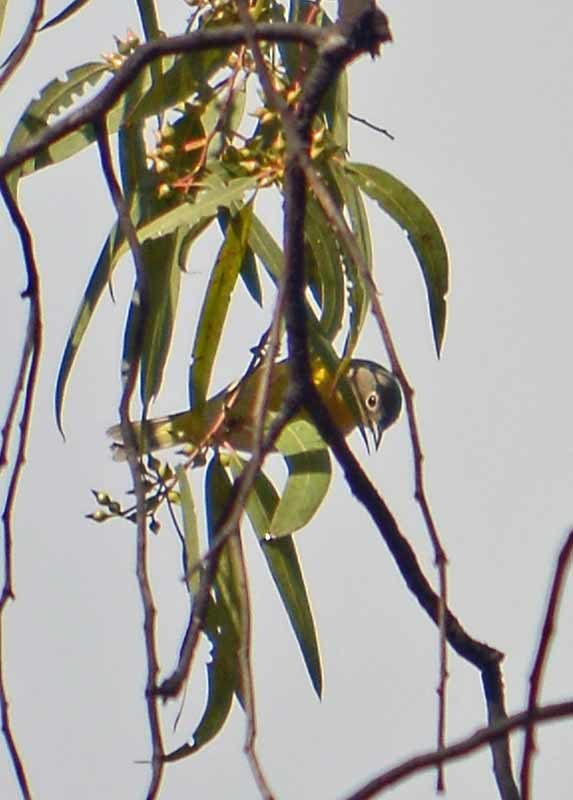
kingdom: Animalia
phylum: Chordata
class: Aves
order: Passeriformes
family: Parulidae
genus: Leiothlypis
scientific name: Leiothlypis ruficapilla
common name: Nashville warbler
